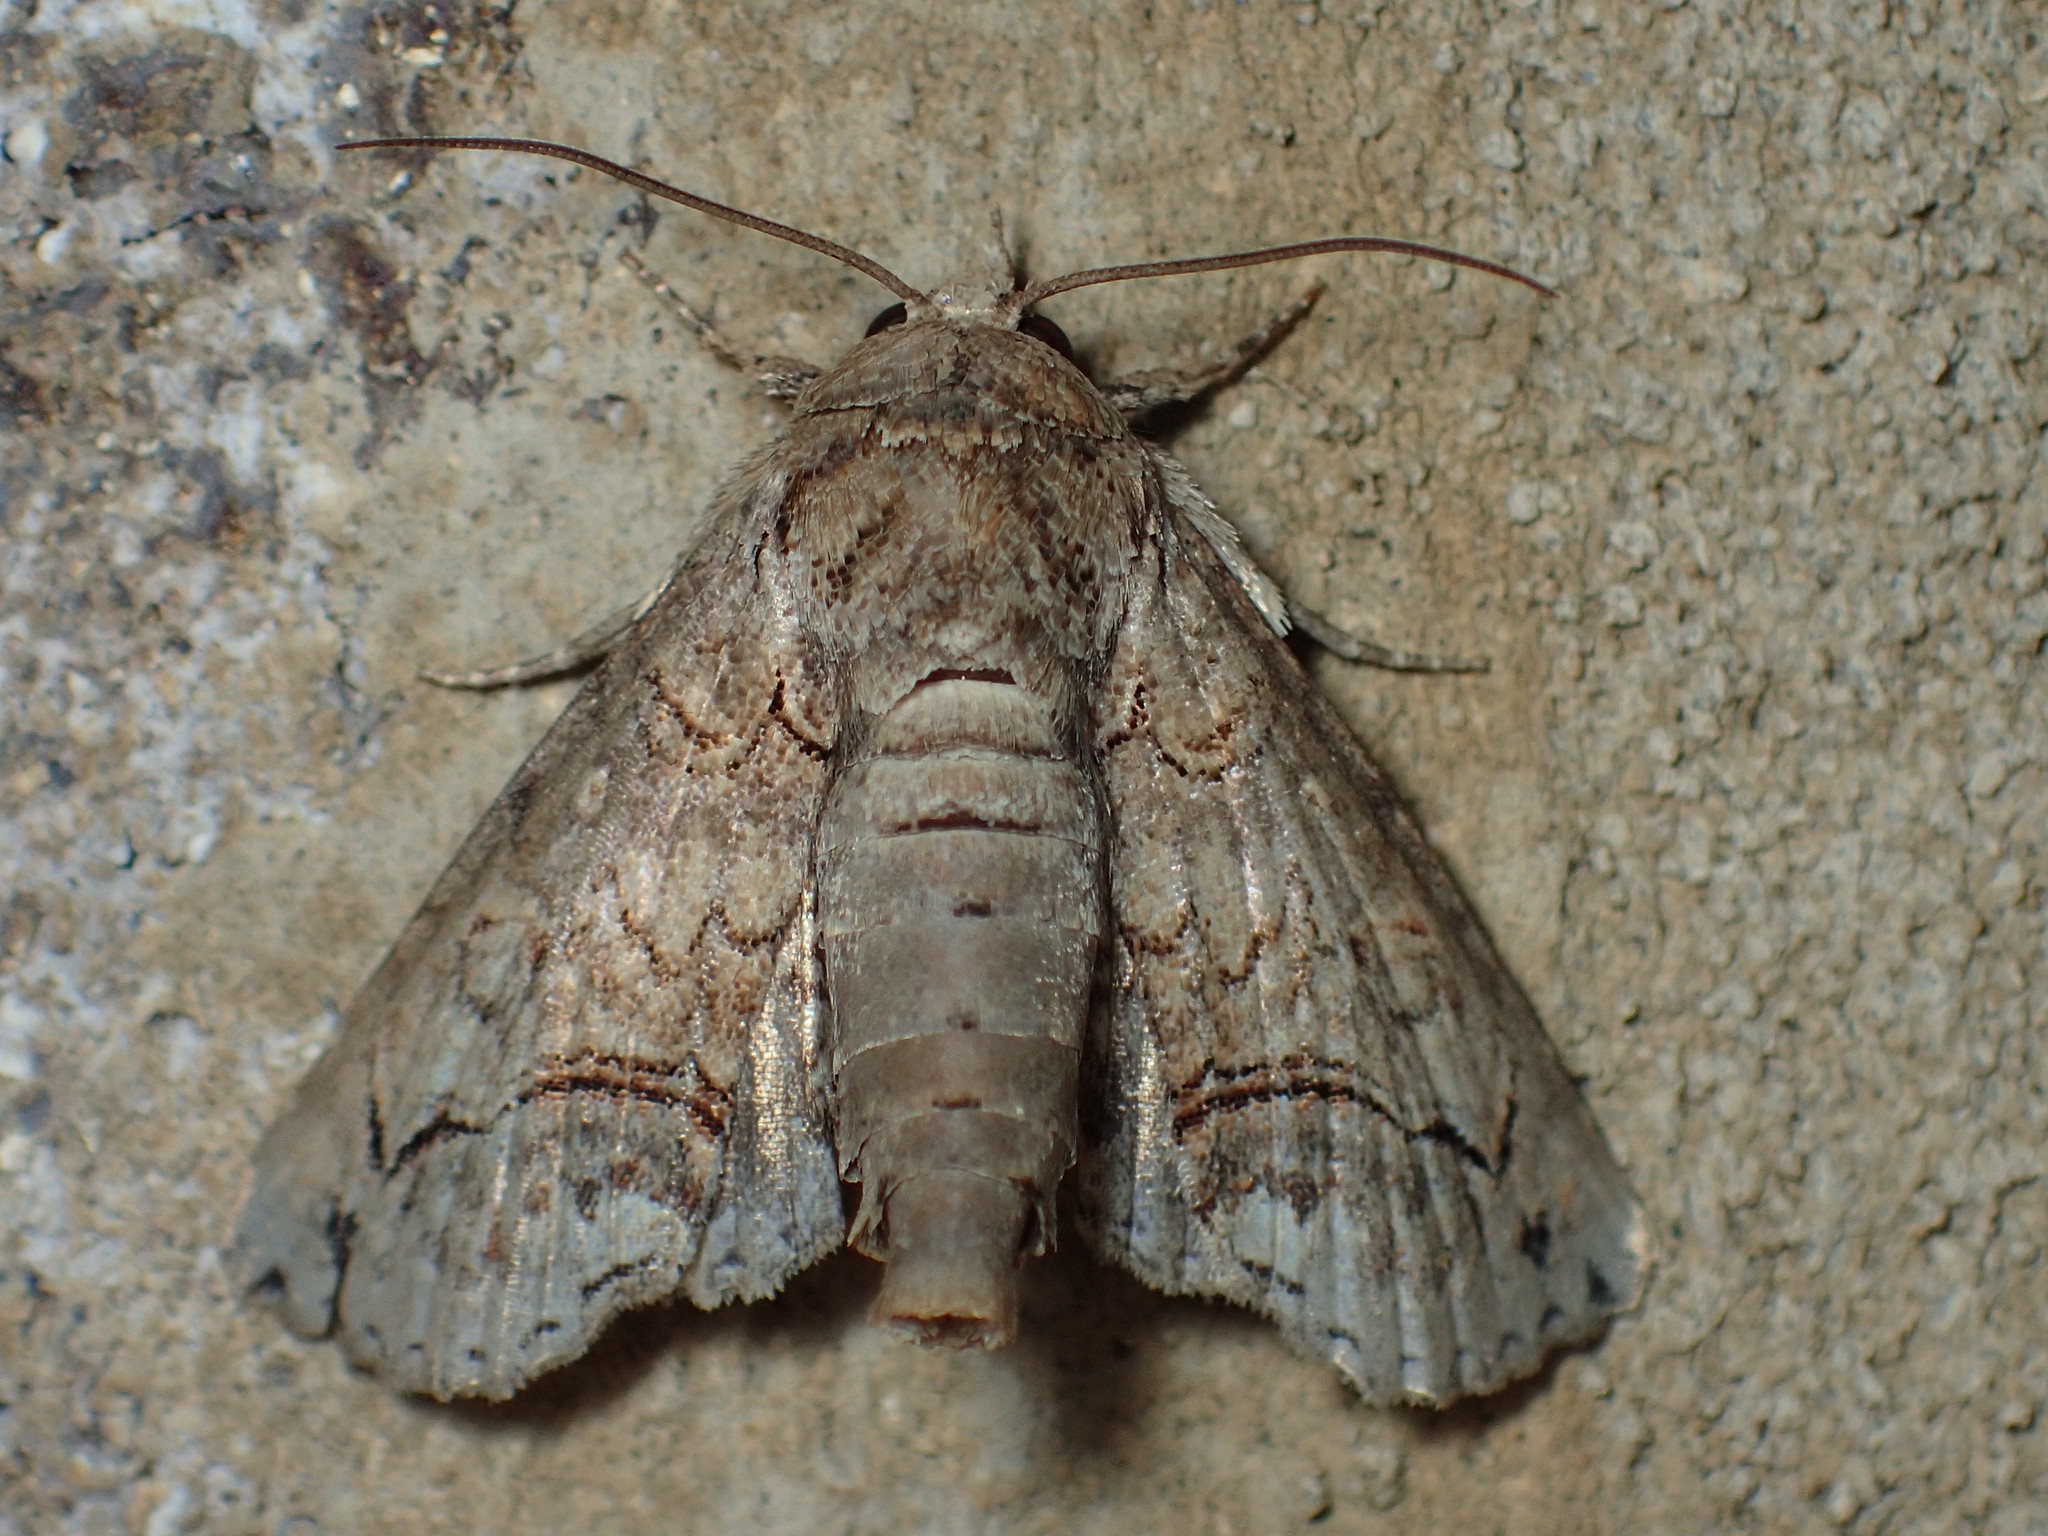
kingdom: Animalia
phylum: Arthropoda
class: Insecta
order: Lepidoptera
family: Euteliidae
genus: Paectes
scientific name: Paectes abrostoloides
